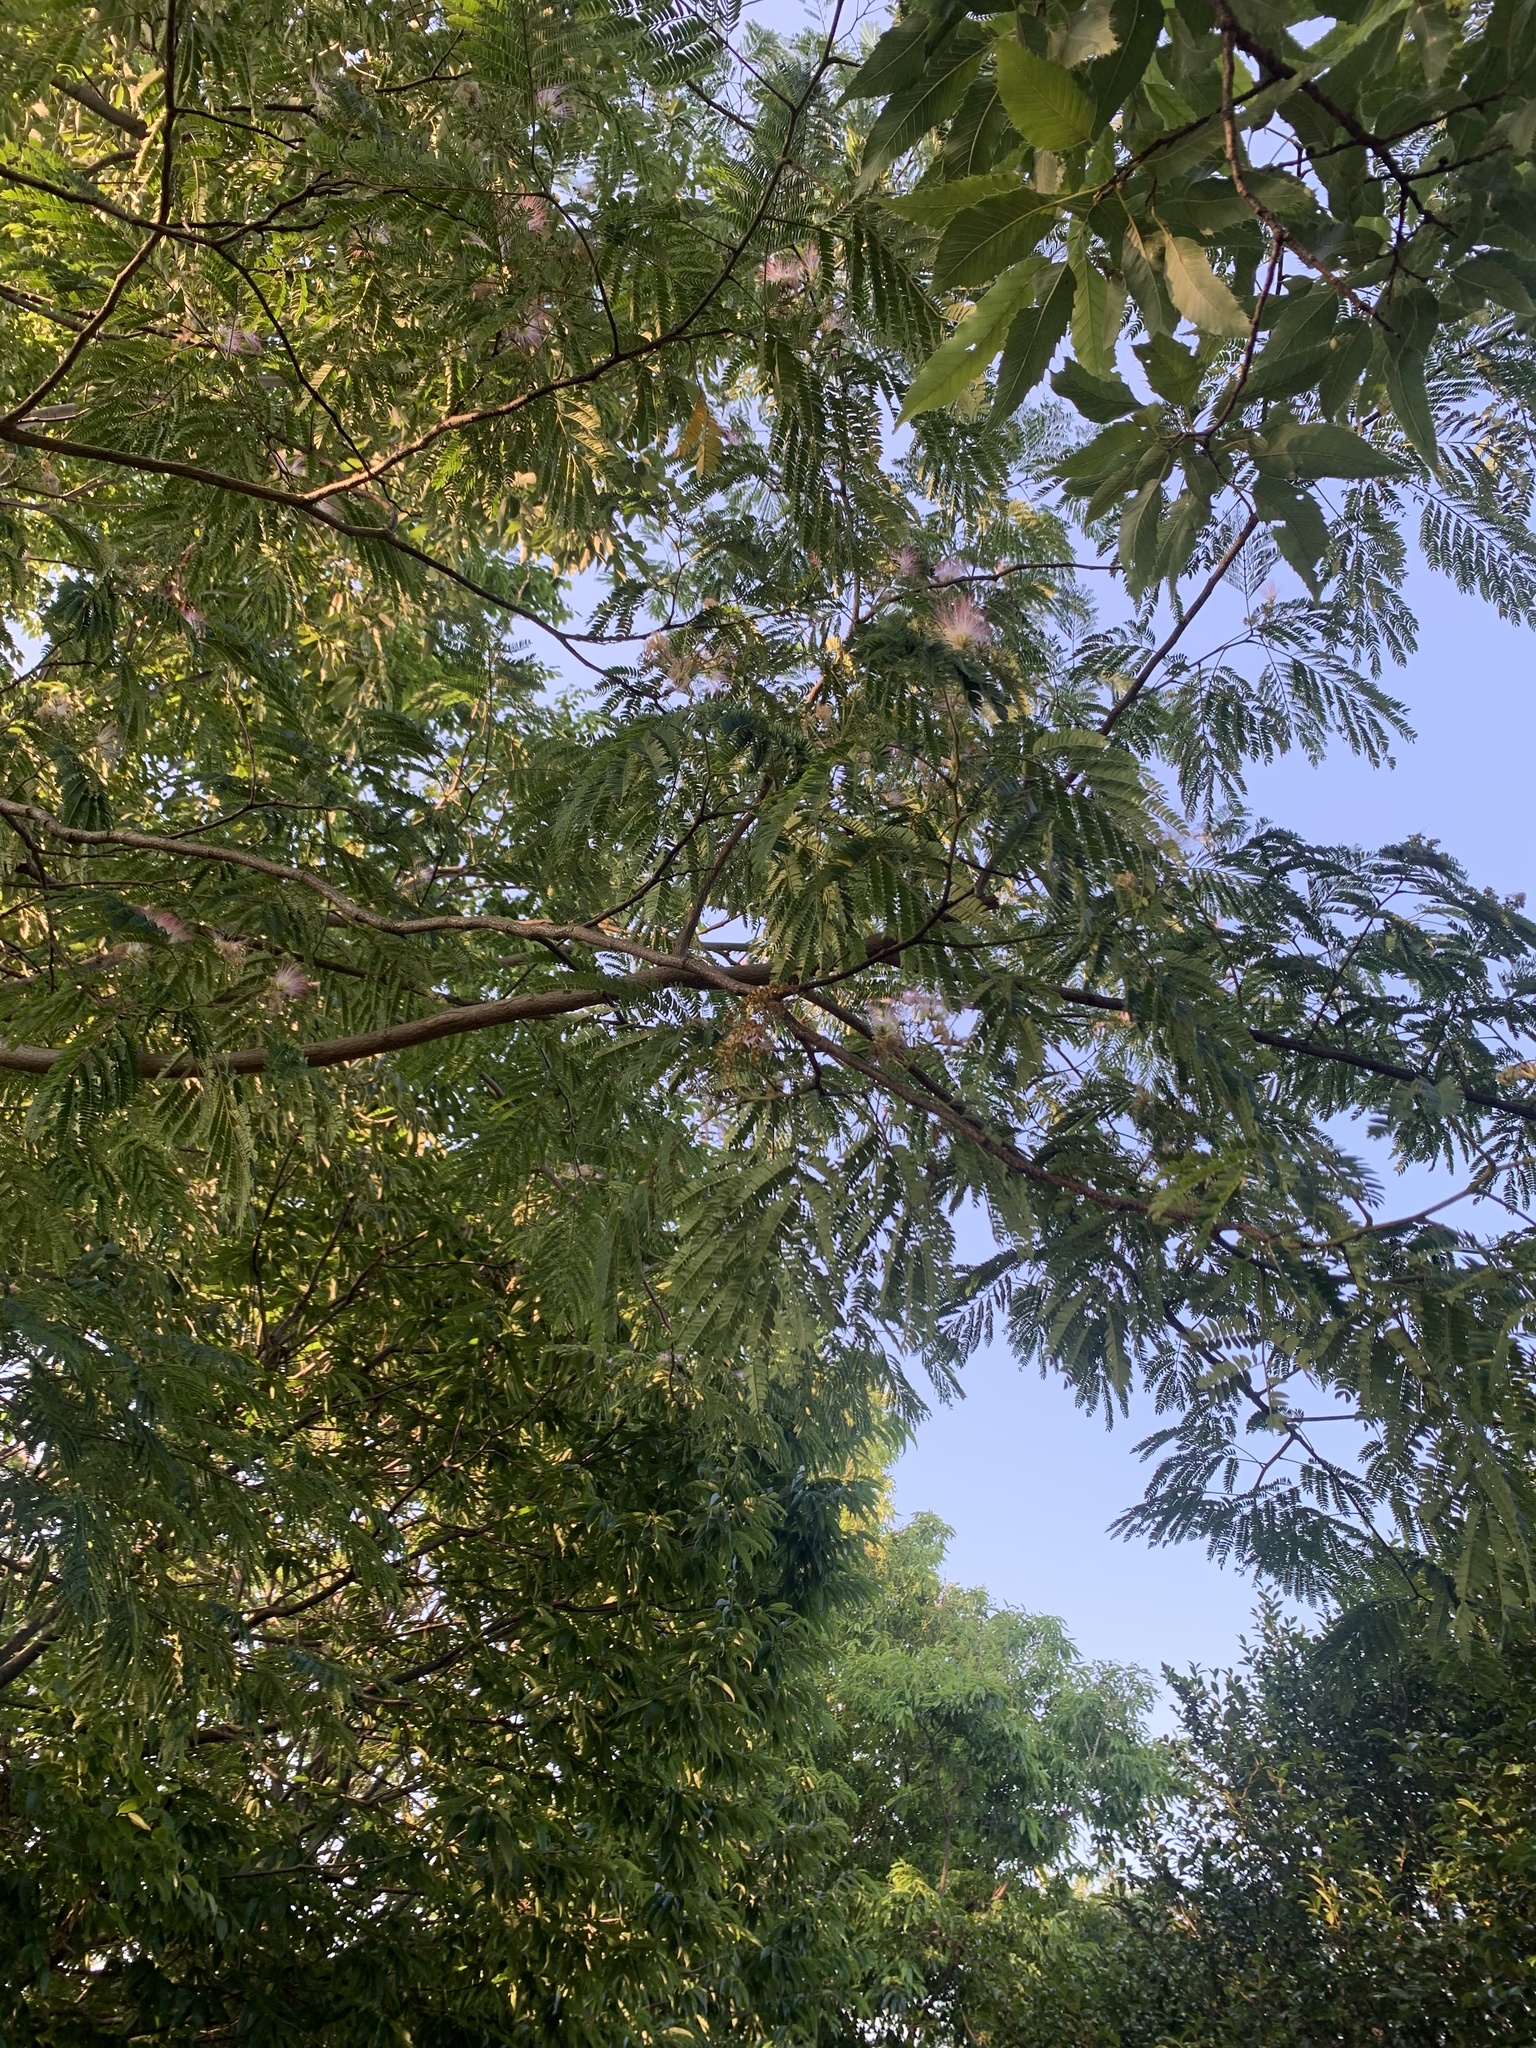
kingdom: Plantae
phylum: Tracheophyta
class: Magnoliopsida
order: Fabales
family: Fabaceae
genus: Albizia
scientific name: Albizia julibrissin
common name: Silktree
